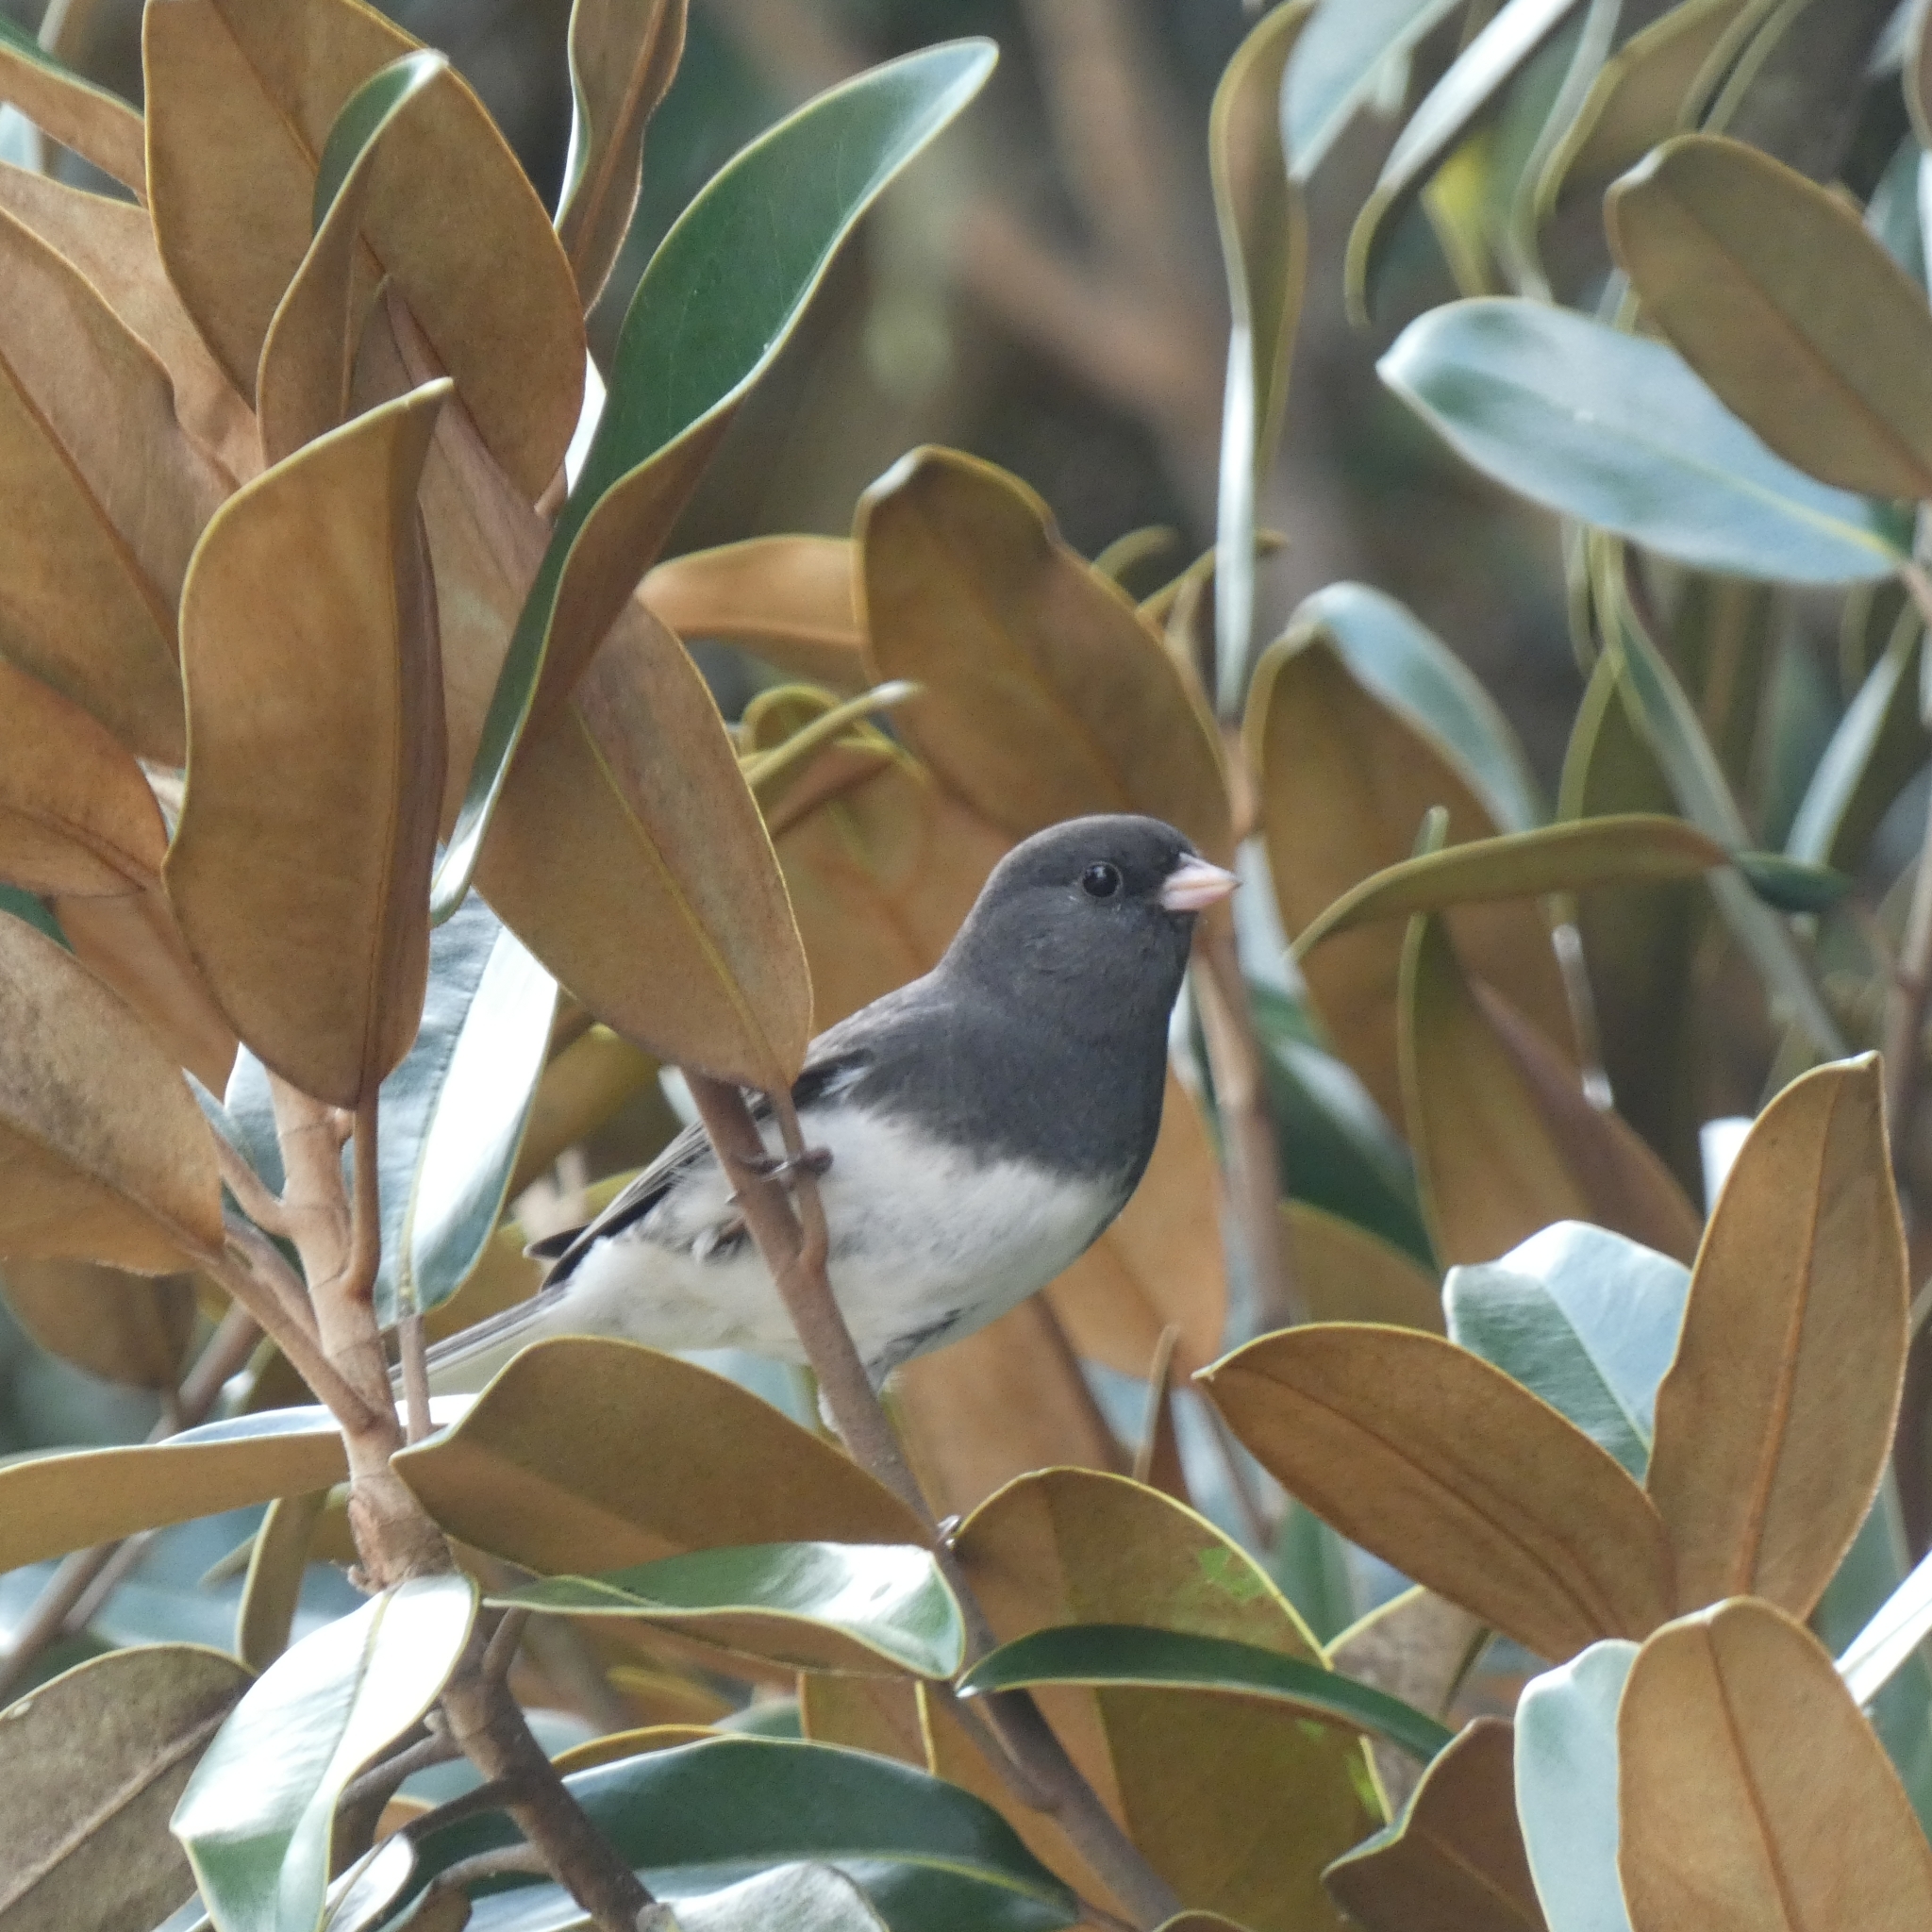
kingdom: Animalia
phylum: Chordata
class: Aves
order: Passeriformes
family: Passerellidae
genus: Junco
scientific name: Junco hyemalis
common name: Dark-eyed junco
